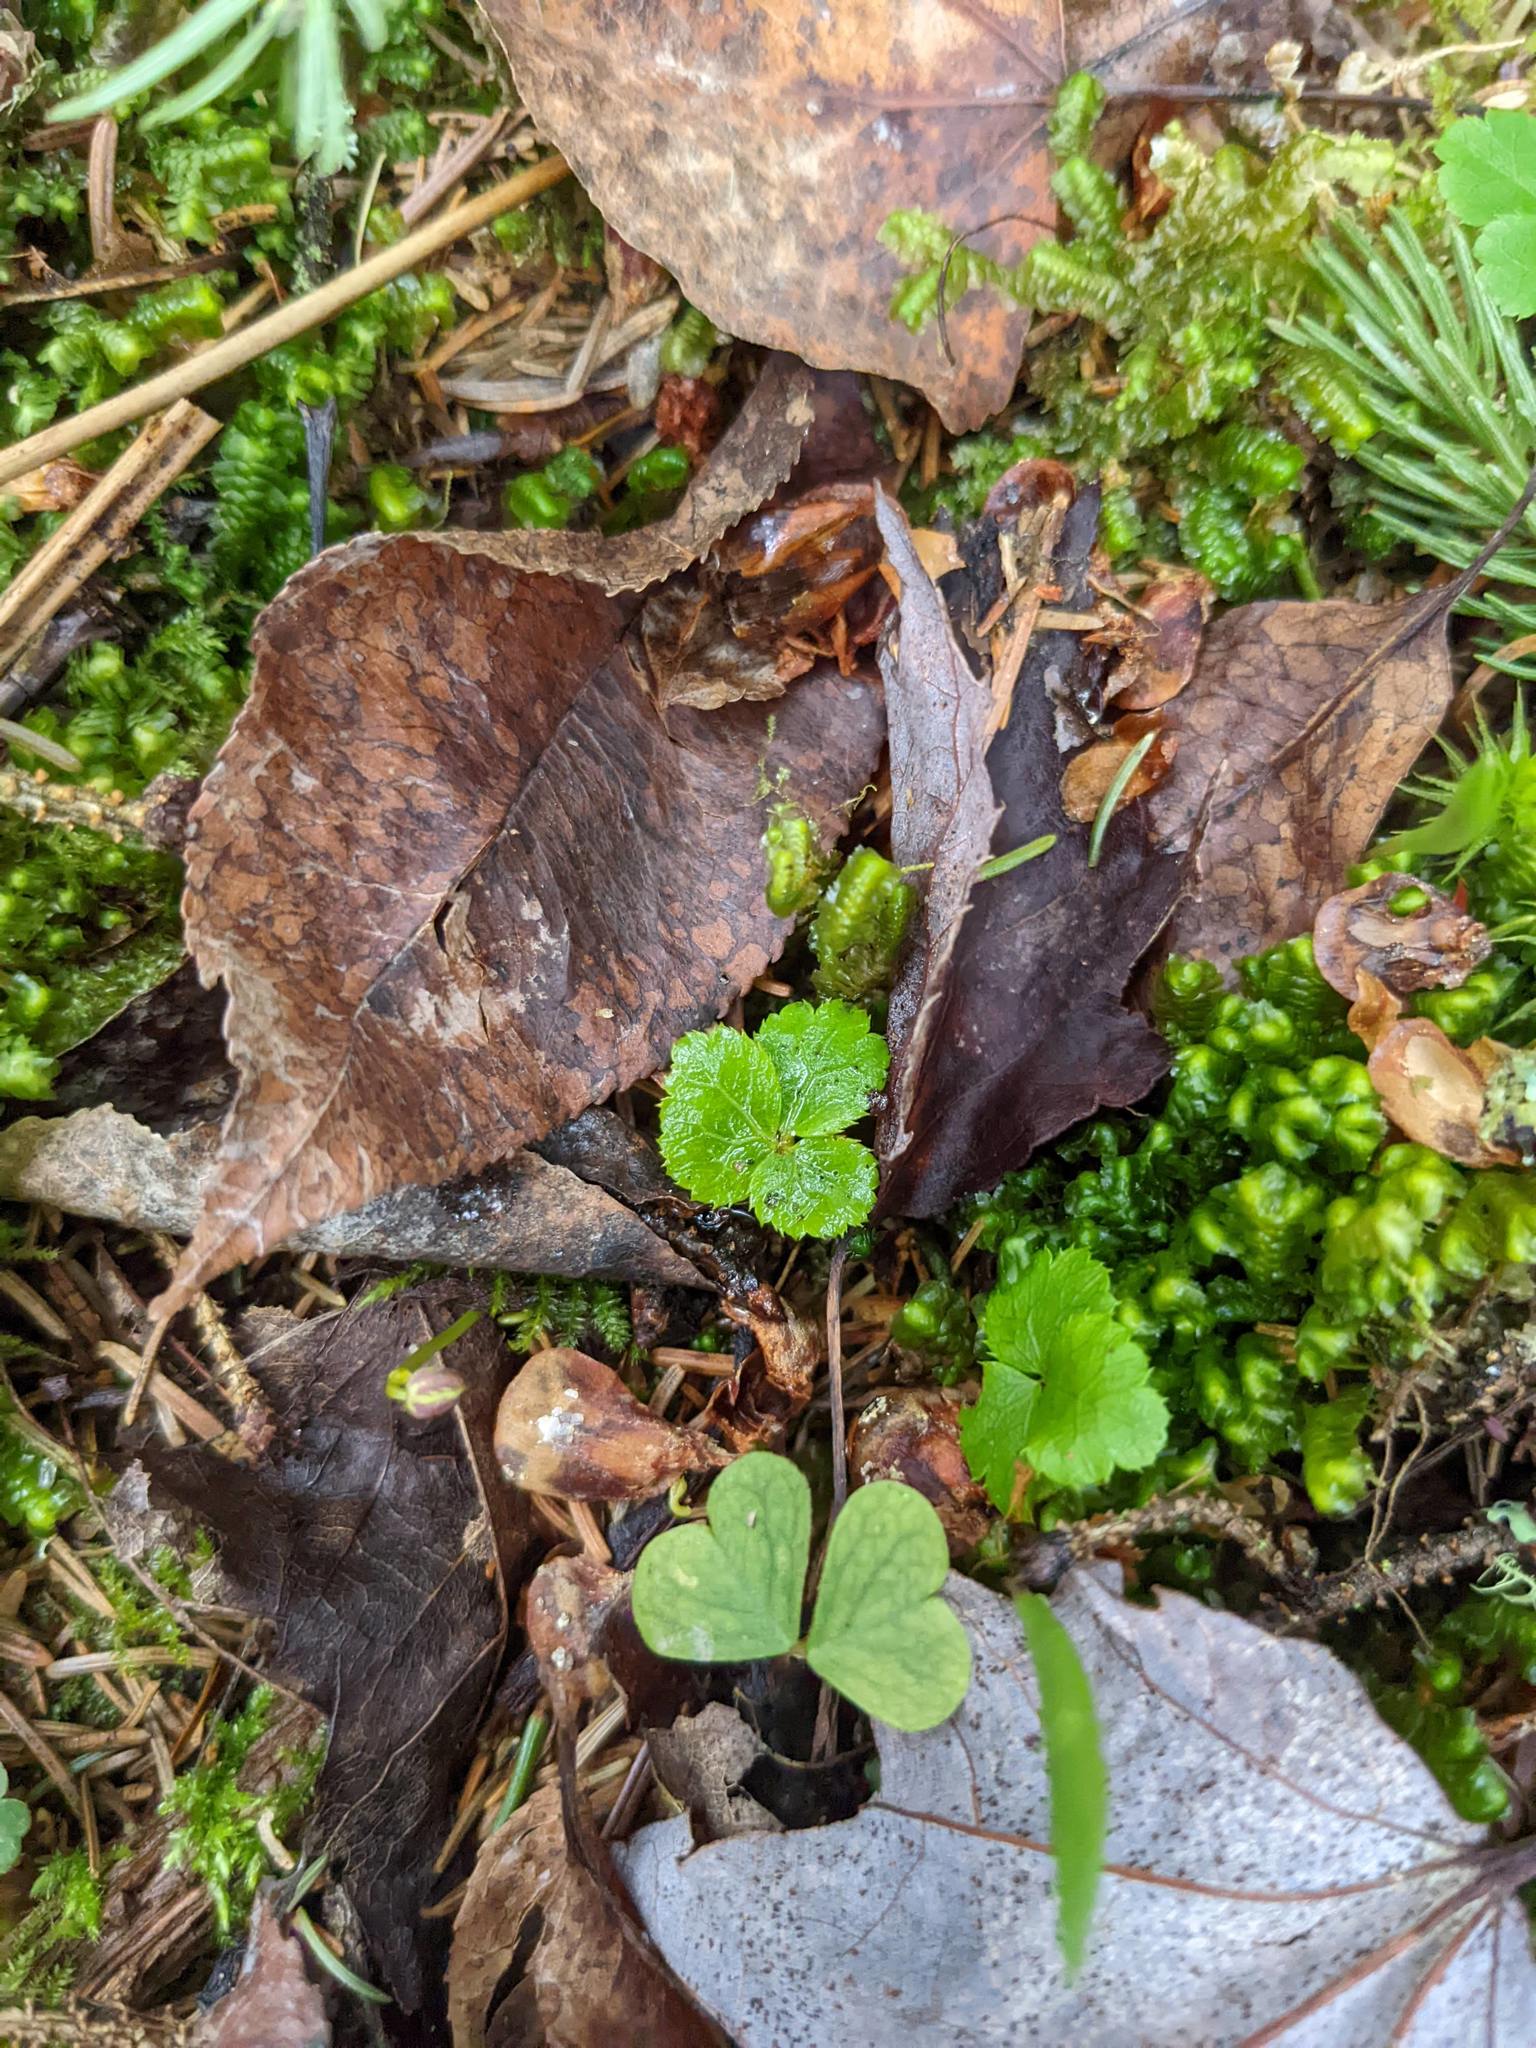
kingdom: Plantae
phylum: Tracheophyta
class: Magnoliopsida
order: Ranunculales
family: Ranunculaceae
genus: Coptis
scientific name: Coptis trifolia
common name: Canker-root
